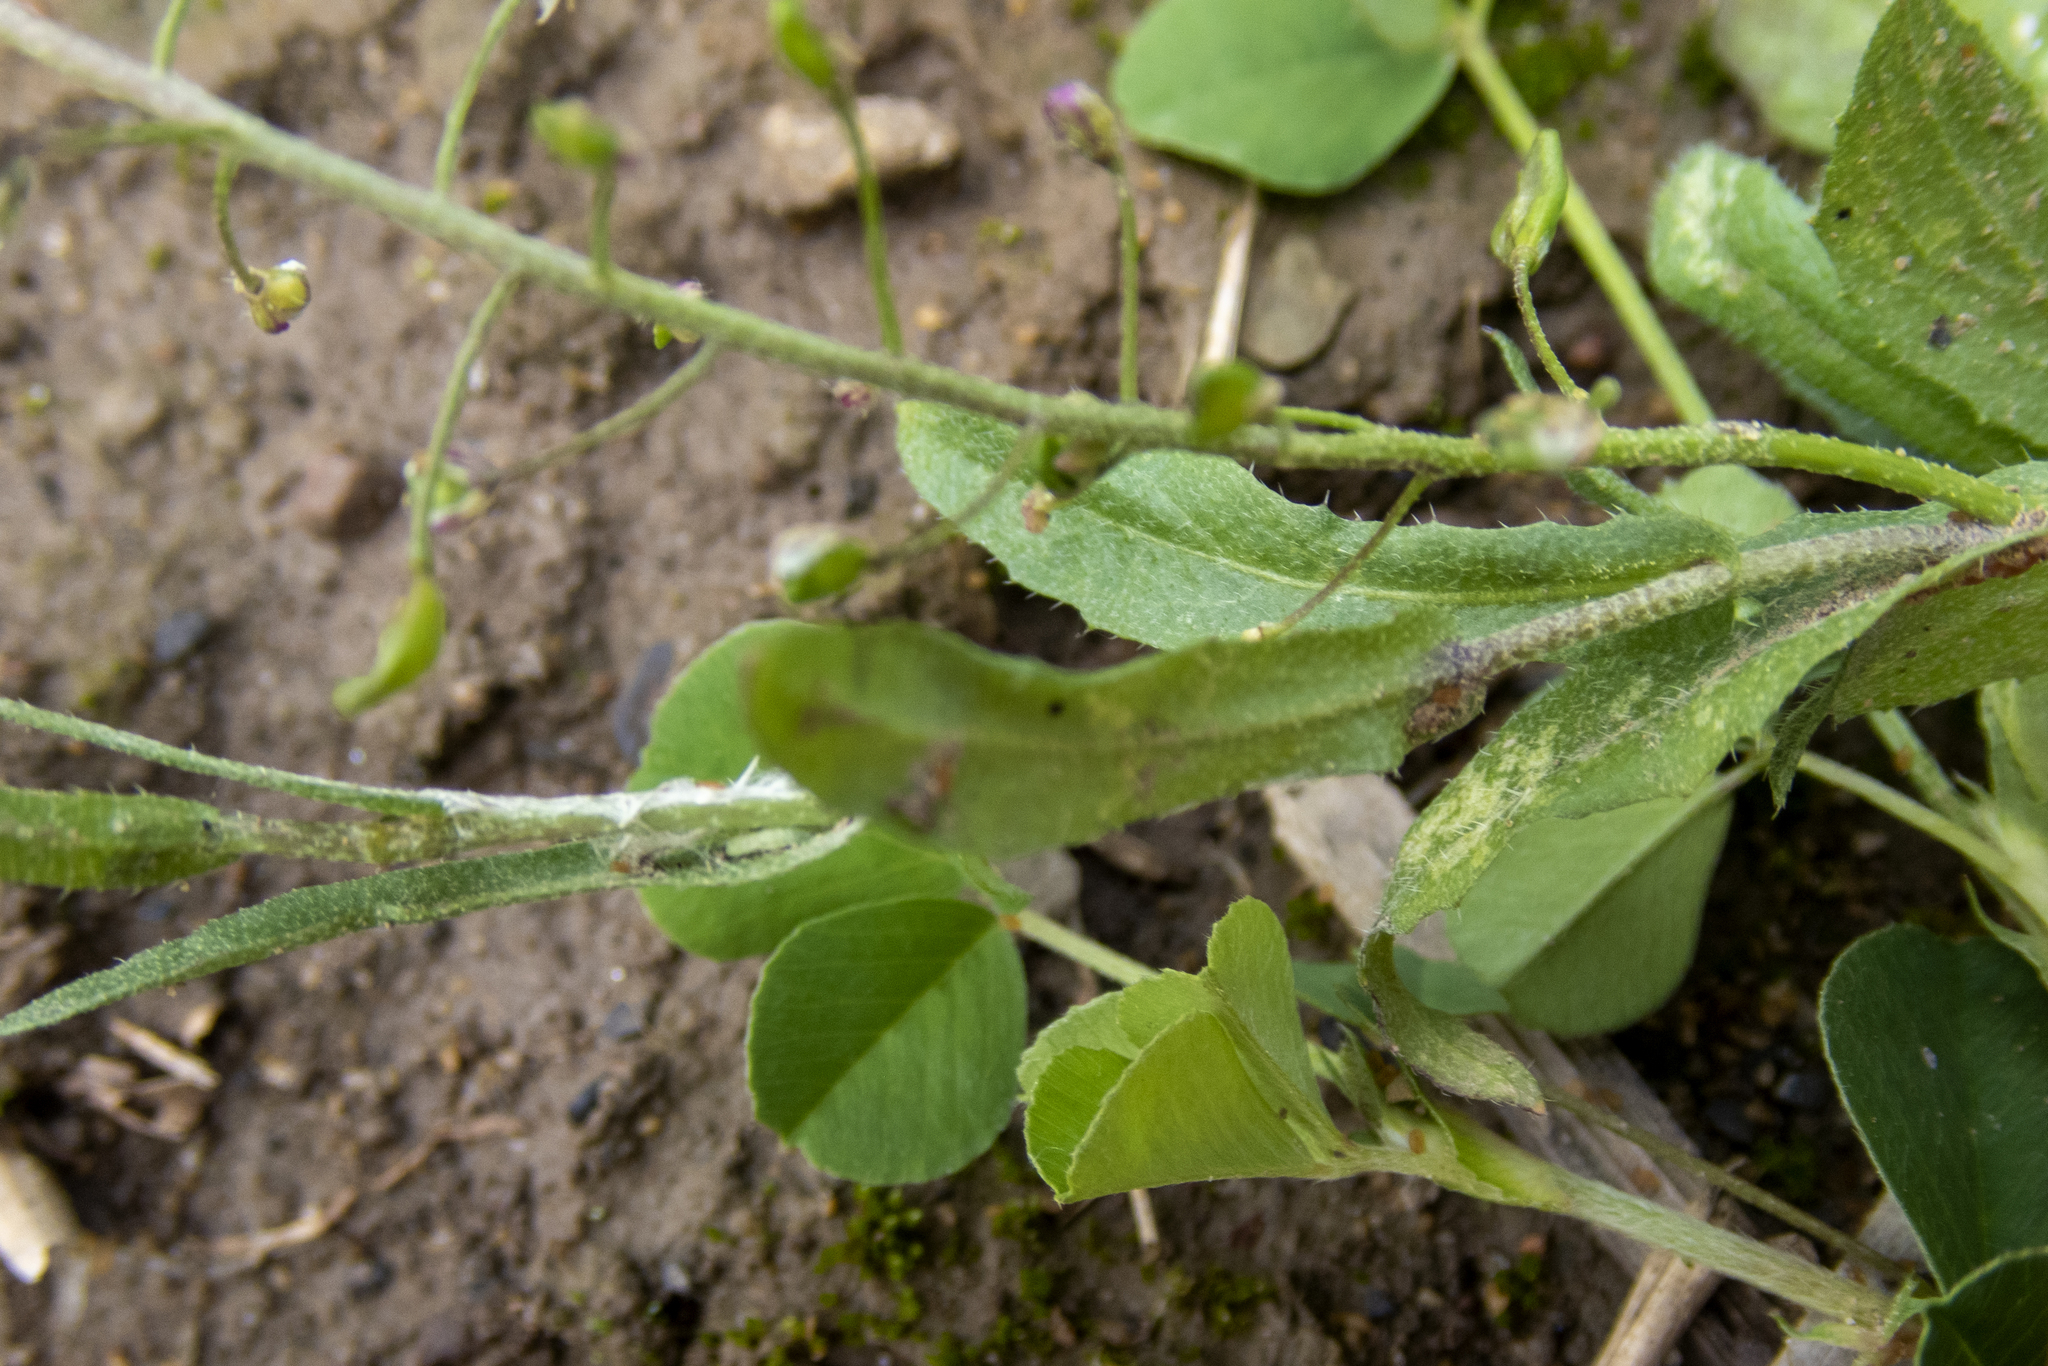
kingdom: Plantae
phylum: Tracheophyta
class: Magnoliopsida
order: Brassicales
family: Brassicaceae
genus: Capsella
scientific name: Capsella bursa-pastoris
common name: Shepherd's purse
